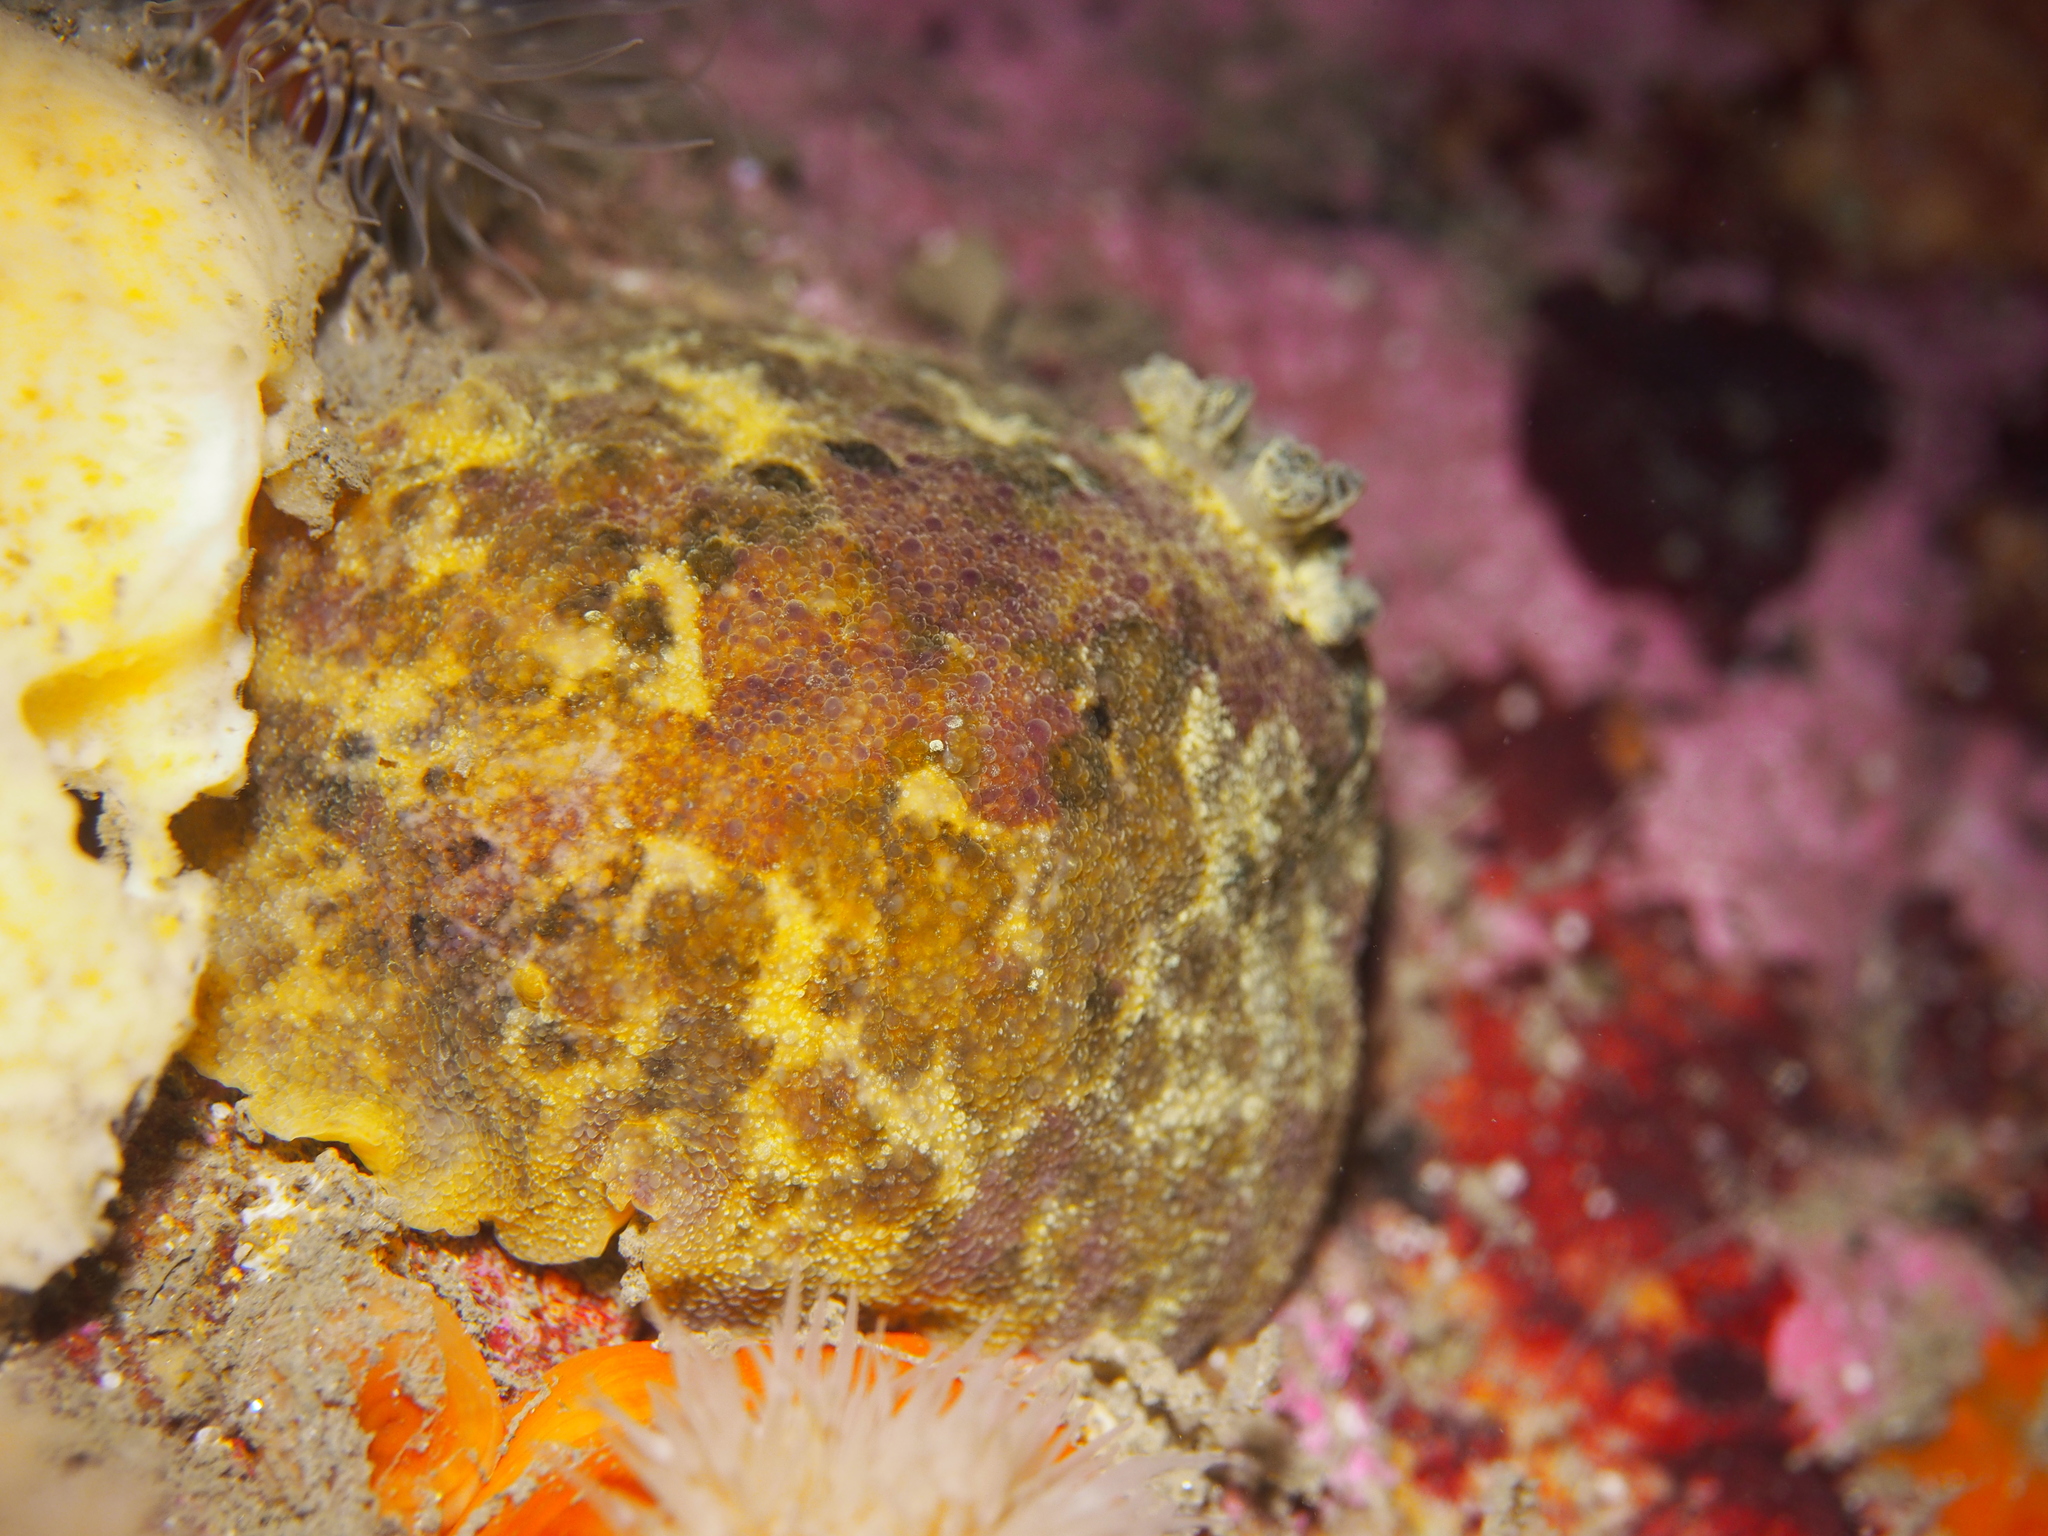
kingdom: Animalia
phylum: Mollusca
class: Gastropoda
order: Nudibranchia
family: Dorididae
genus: Doris
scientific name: Doris pseudoargus
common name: Sea lemon
